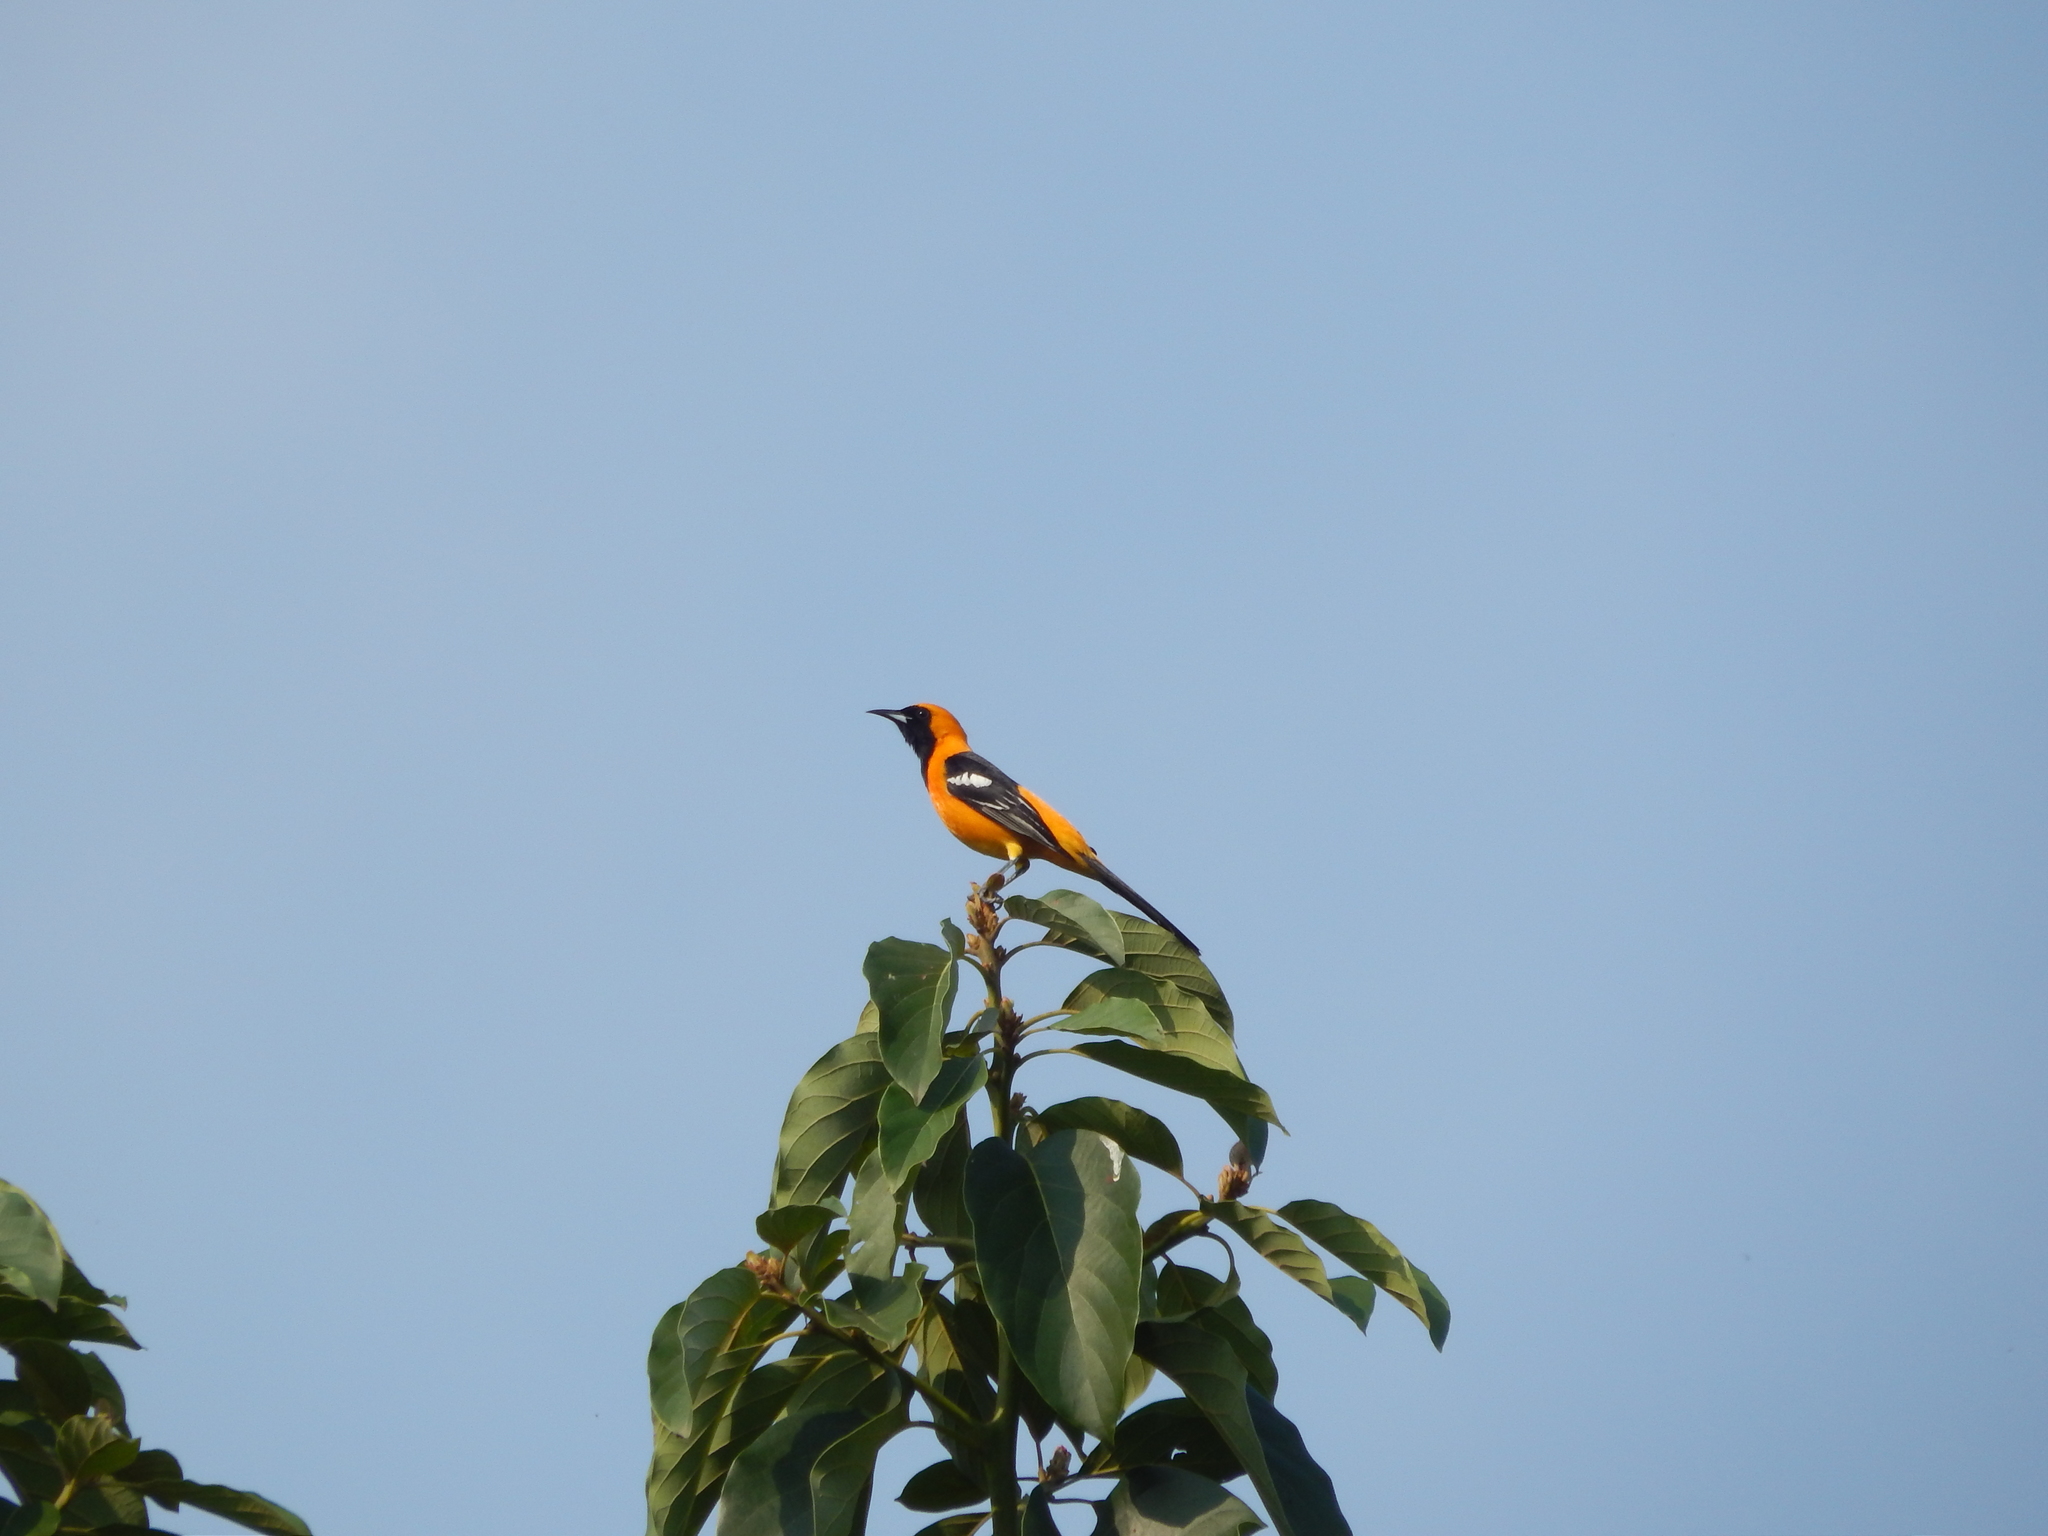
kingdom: Animalia
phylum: Chordata
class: Aves
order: Passeriformes
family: Icteridae
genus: Icterus
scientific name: Icterus cucullatus
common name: Hooded oriole
